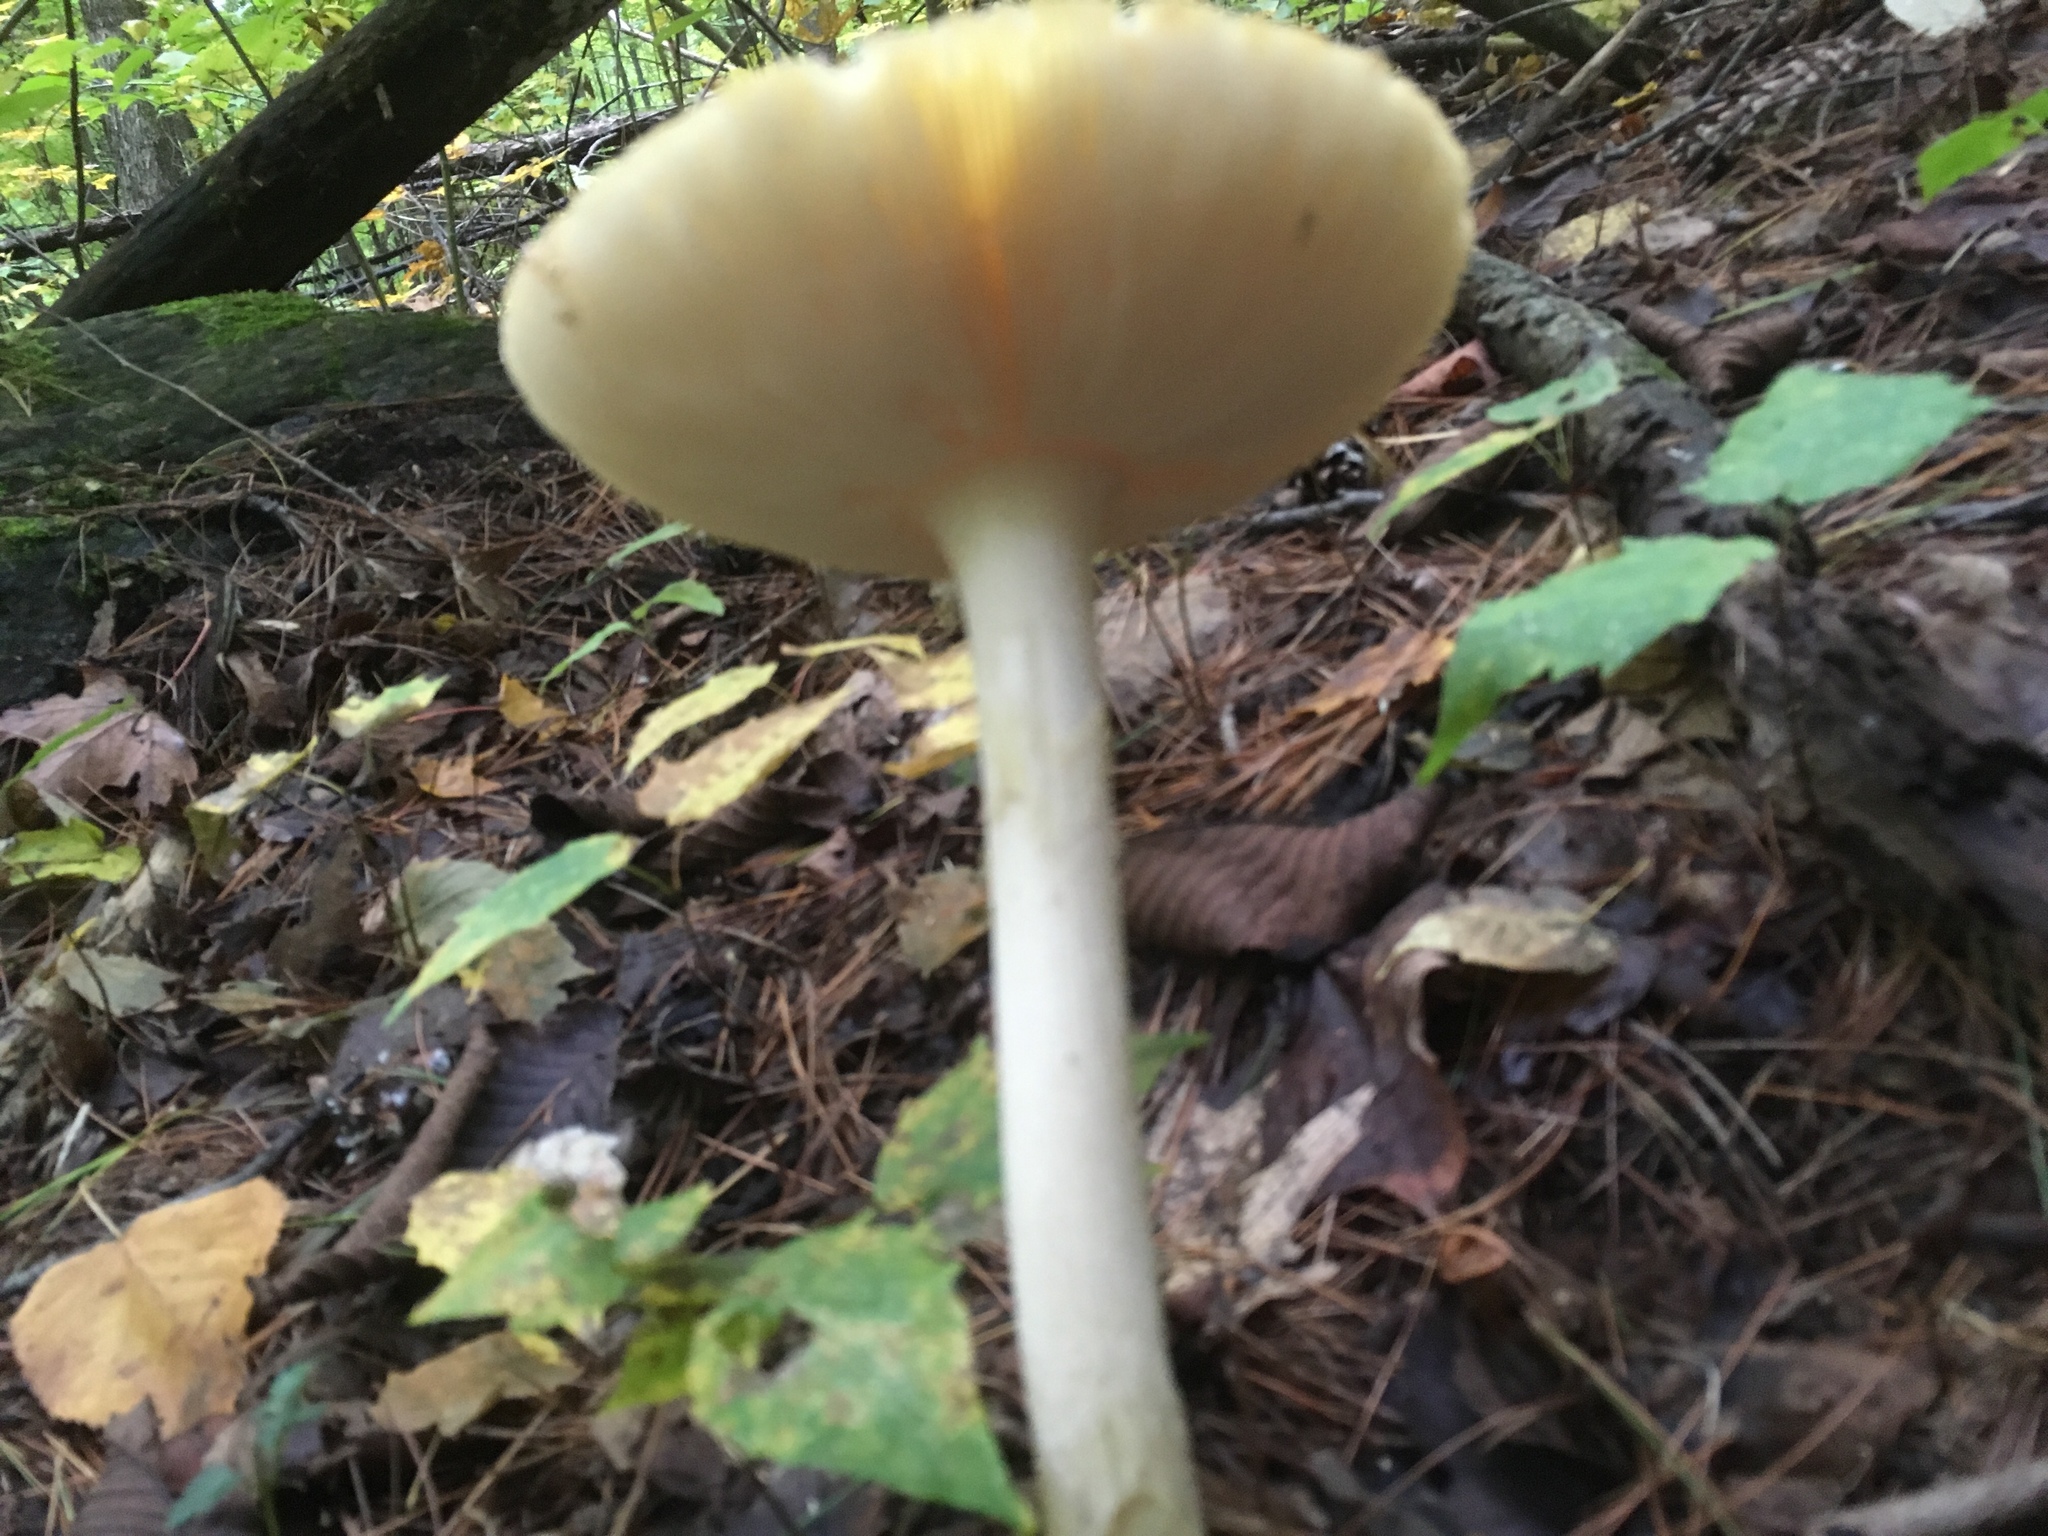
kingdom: Fungi
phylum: Basidiomycota
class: Agaricomycetes
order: Agaricales
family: Amanitaceae
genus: Amanita
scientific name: Amanita
